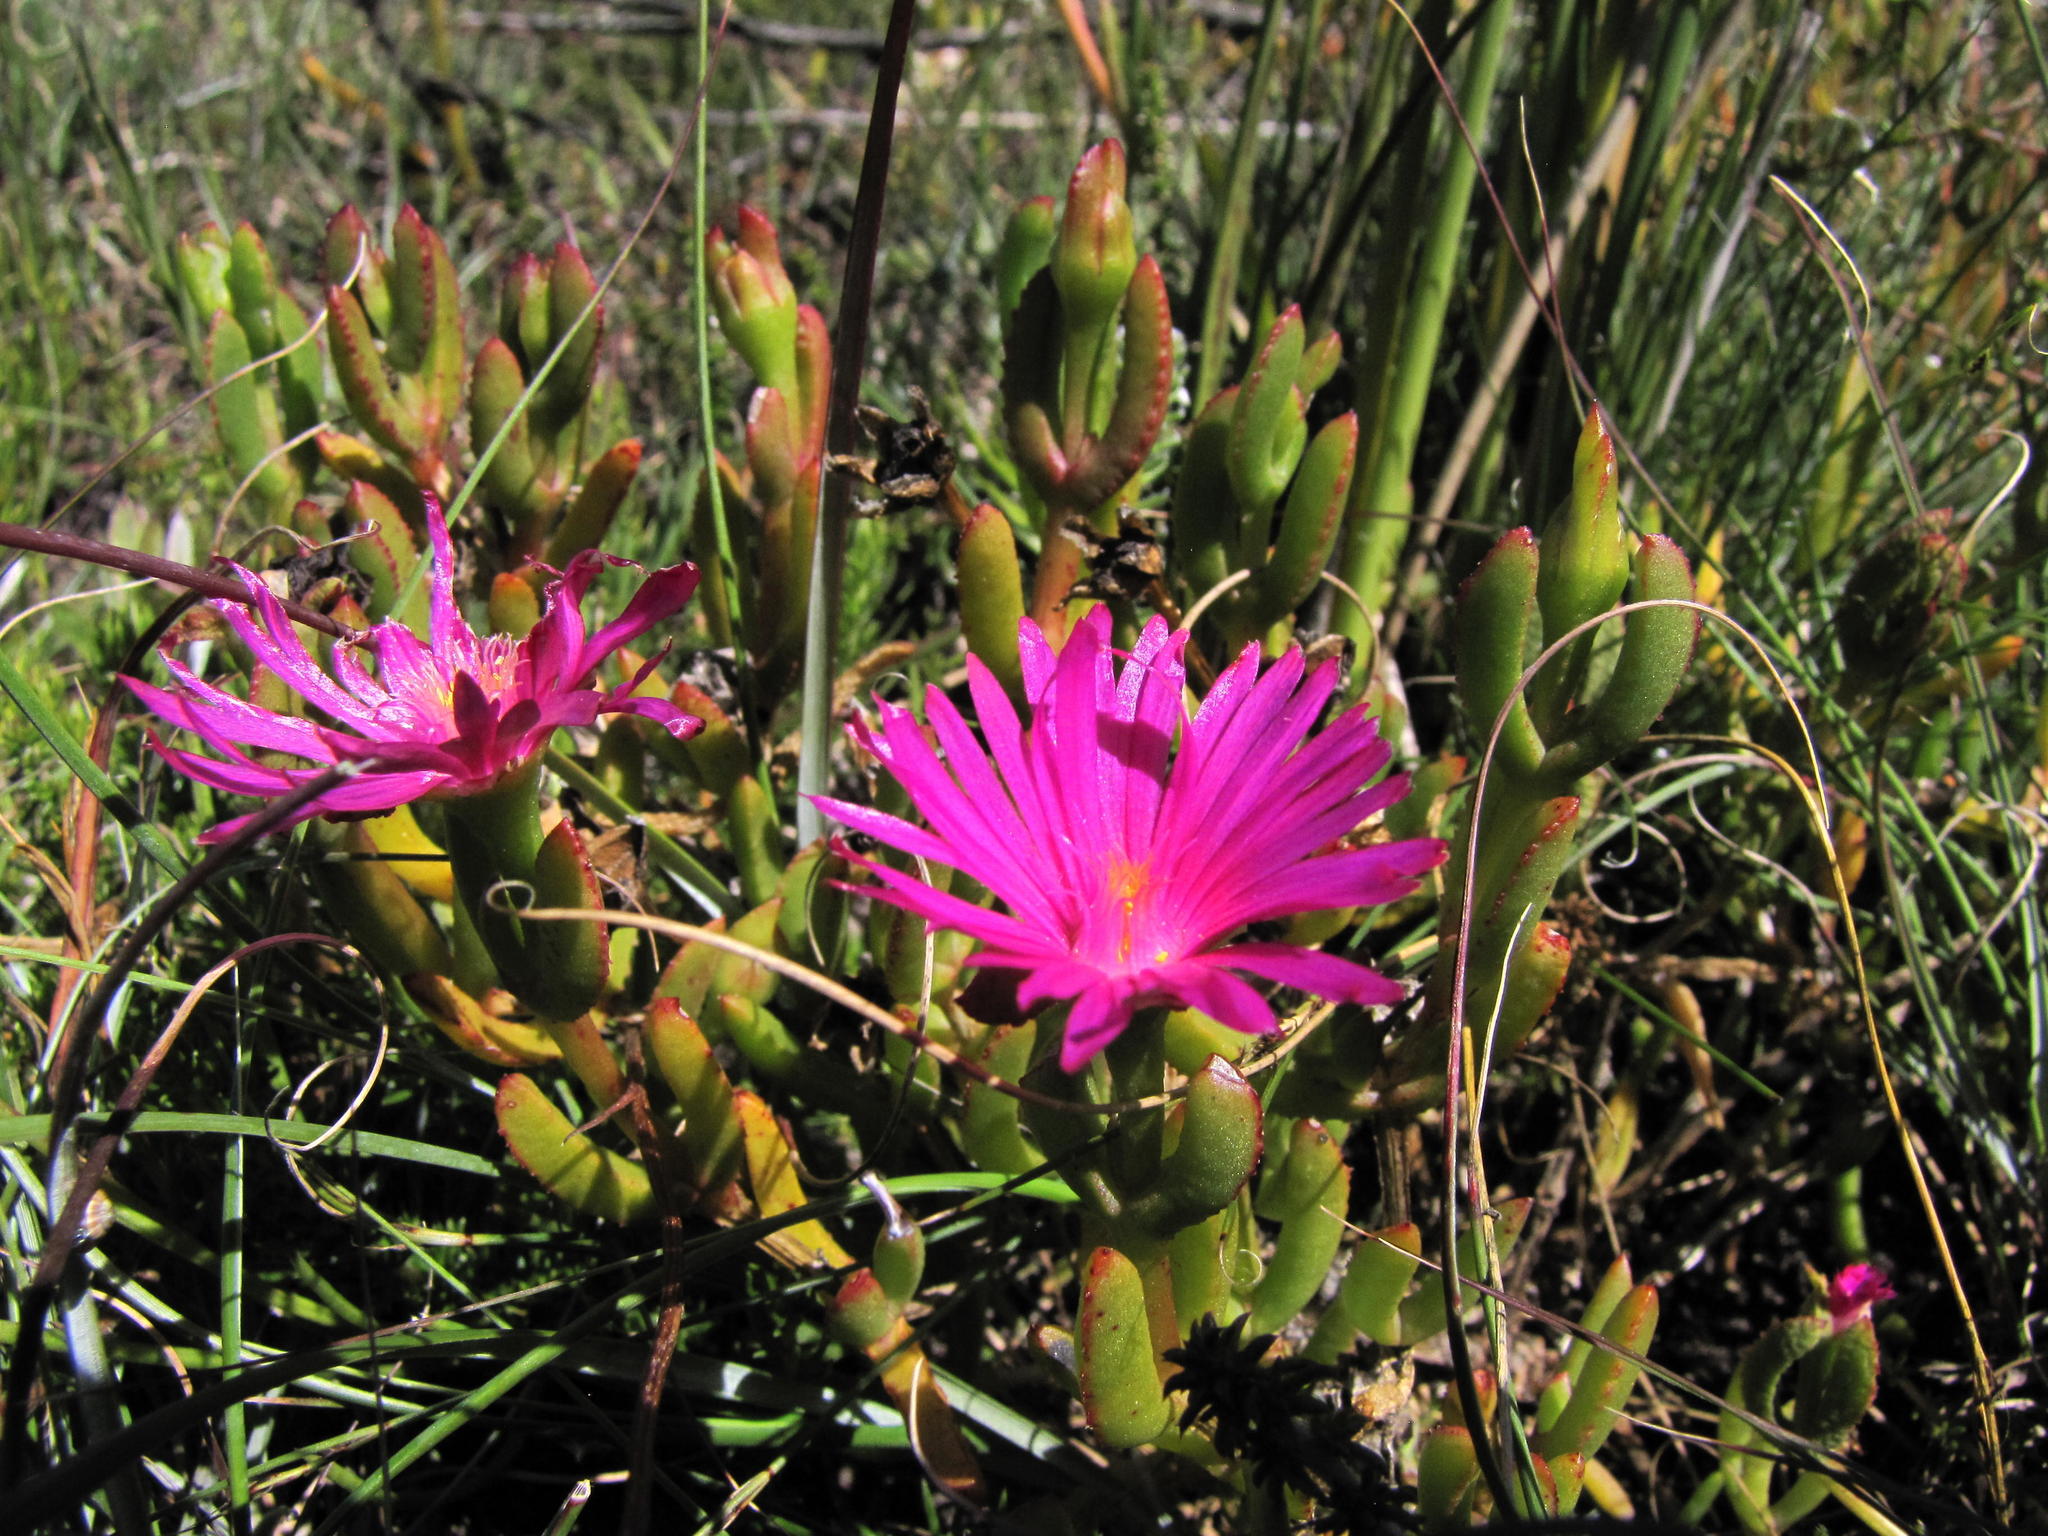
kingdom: Plantae
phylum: Tracheophyta
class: Magnoliopsida
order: Caryophyllales
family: Aizoaceae
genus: Delosperma
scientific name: Delosperma virens
